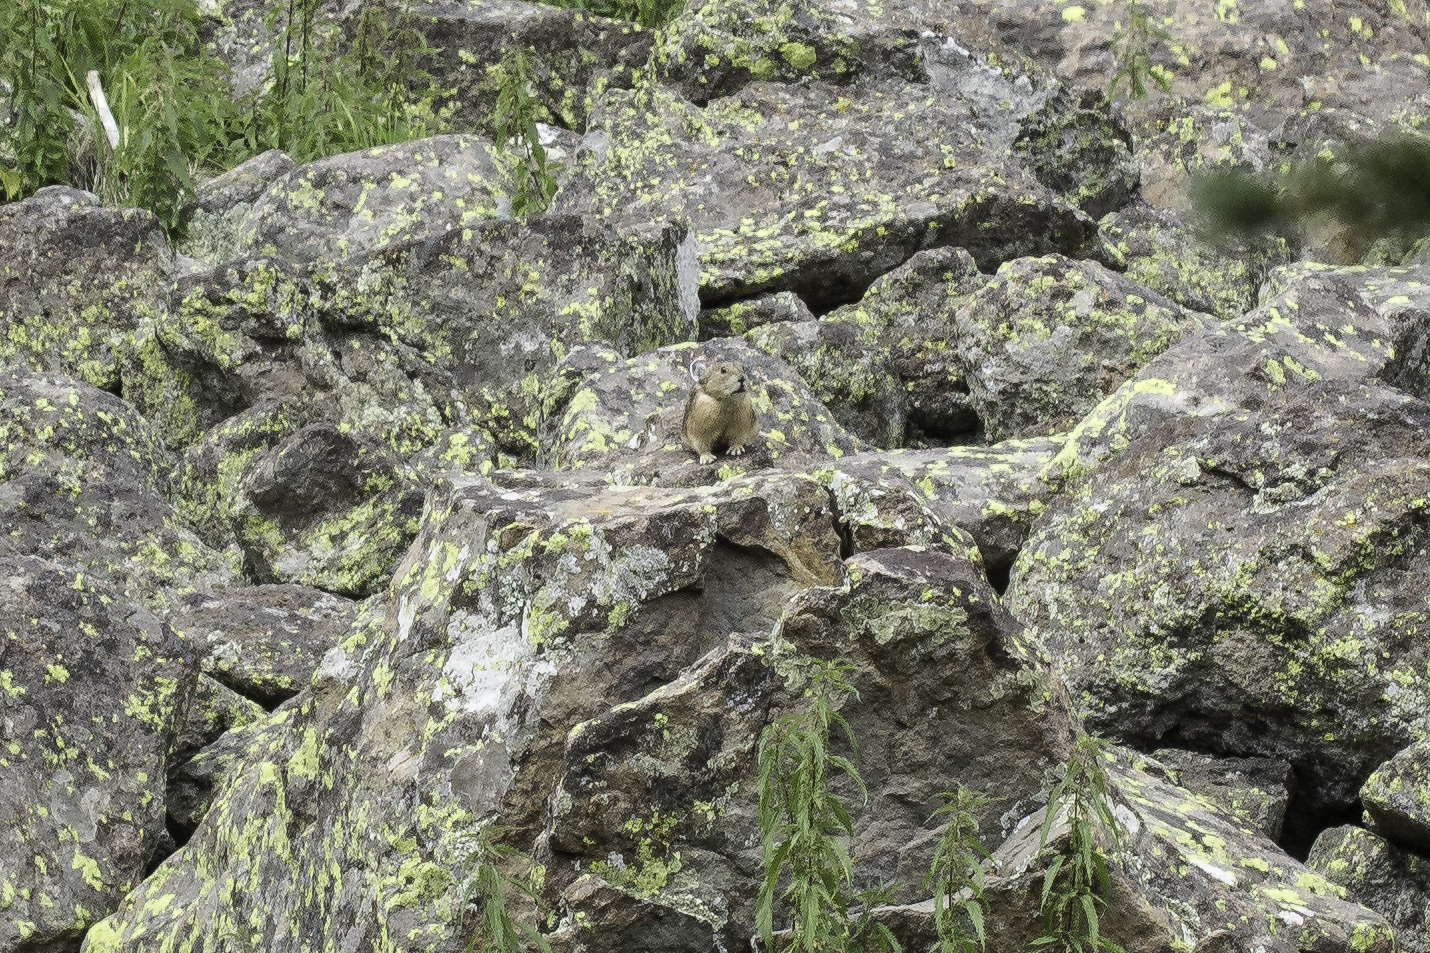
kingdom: Animalia
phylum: Chordata
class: Mammalia
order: Lagomorpha
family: Ochotonidae
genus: Ochotona
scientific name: Ochotona princeps
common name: American pika
